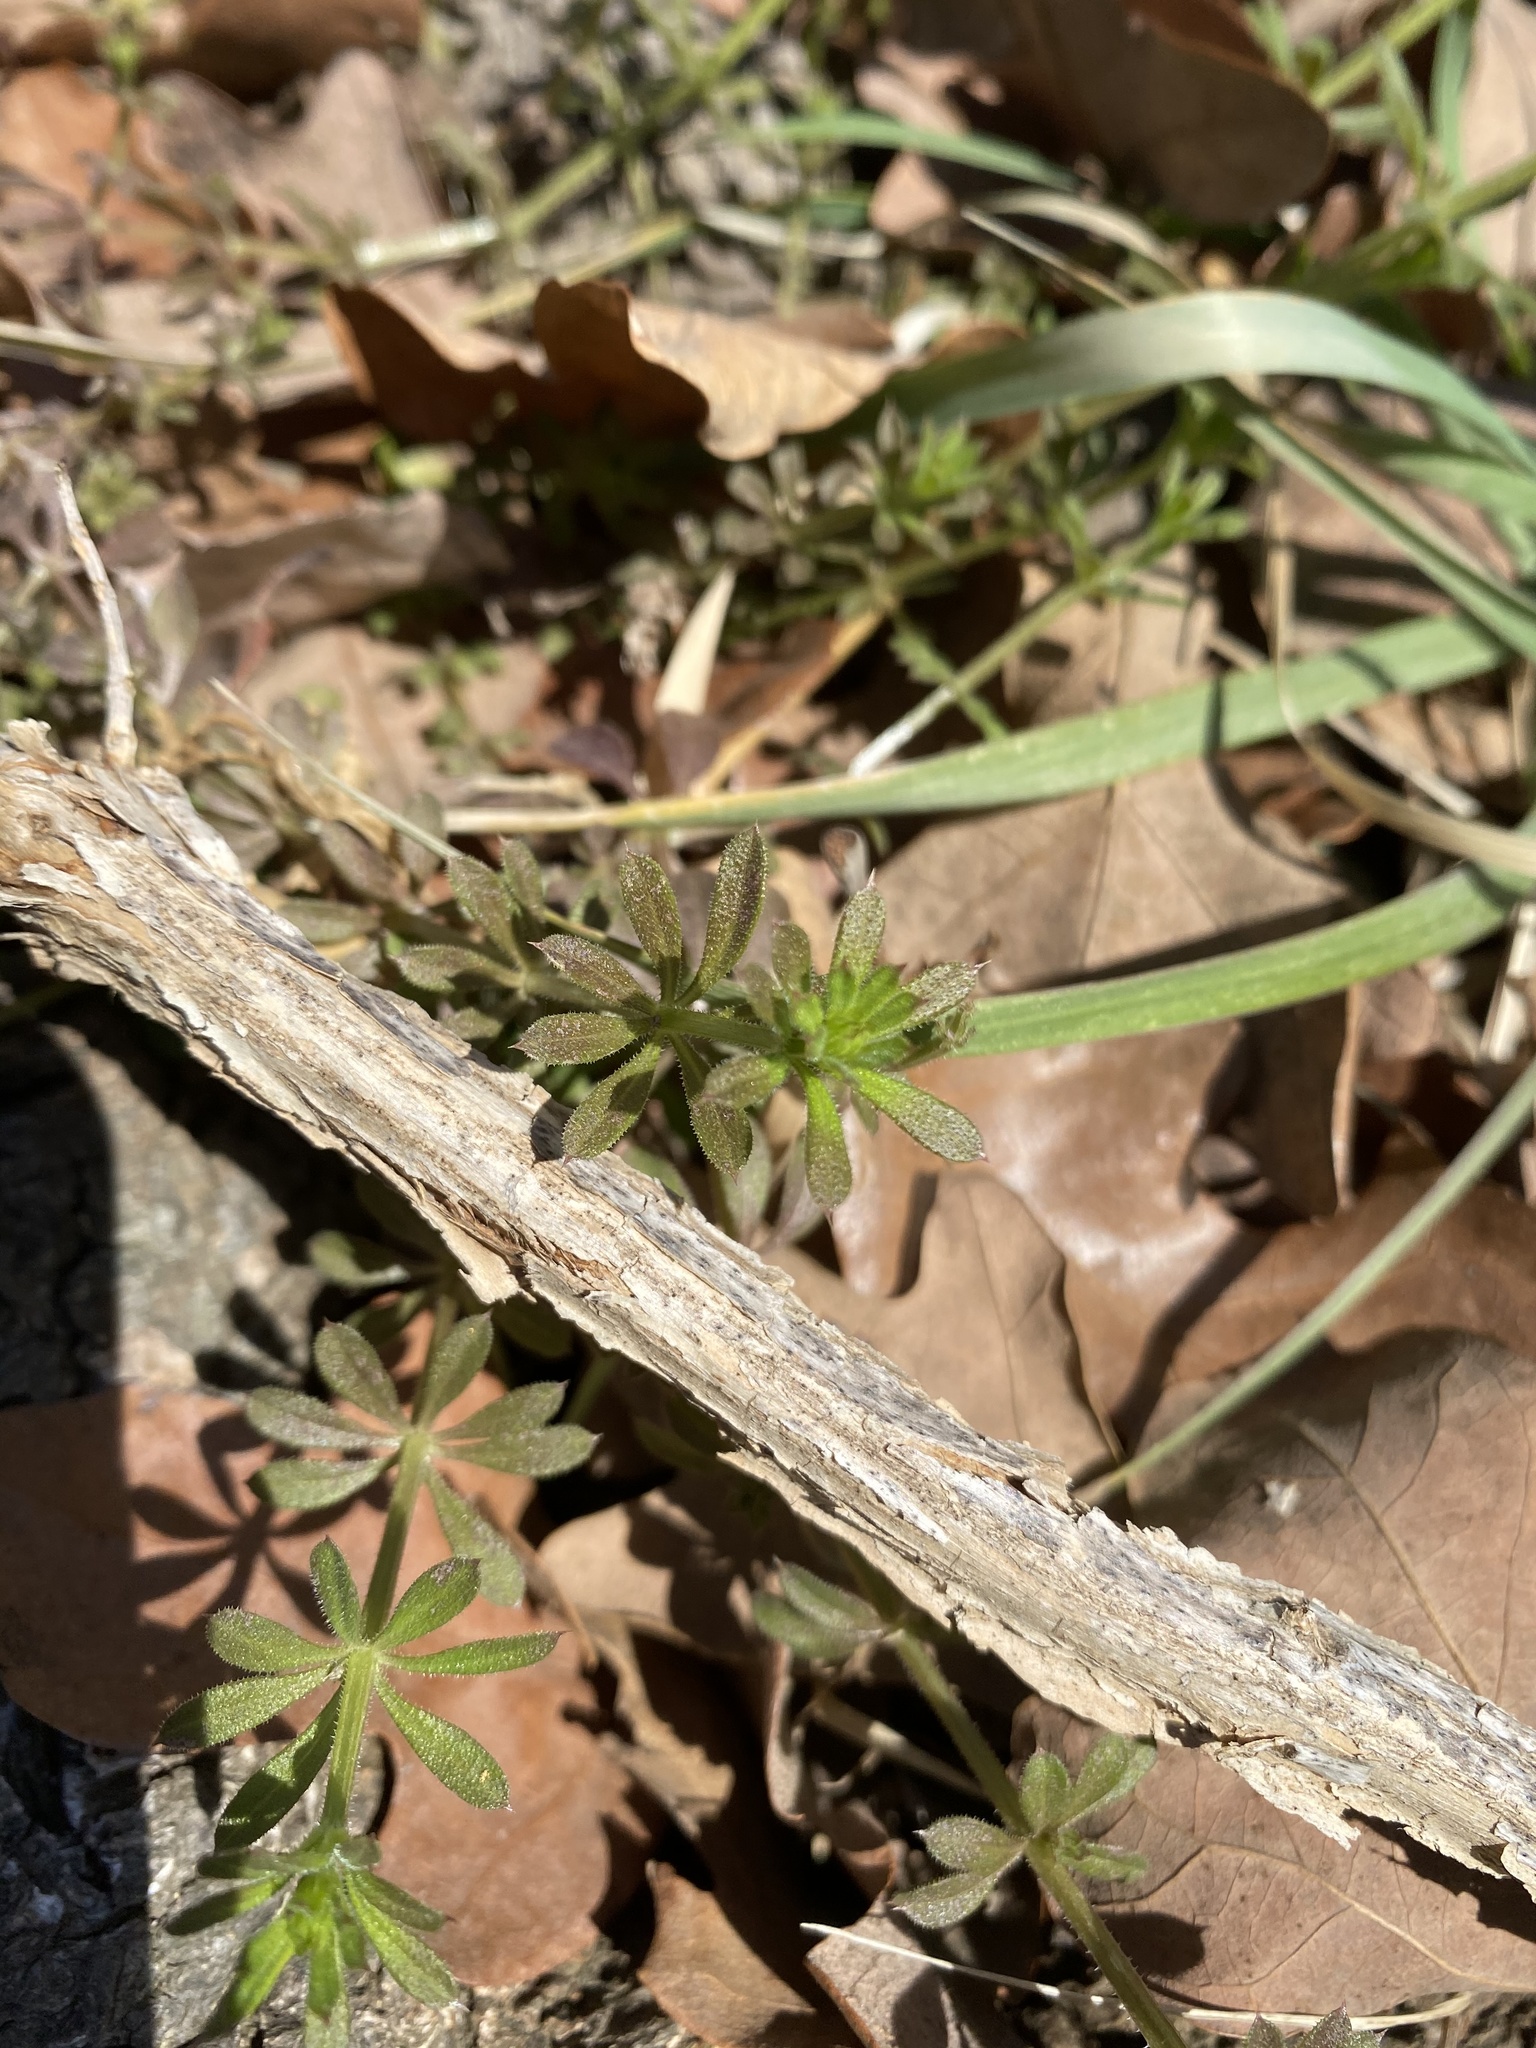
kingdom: Plantae
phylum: Tracheophyta
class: Magnoliopsida
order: Gentianales
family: Rubiaceae
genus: Galium
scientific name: Galium aparine
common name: Cleavers
